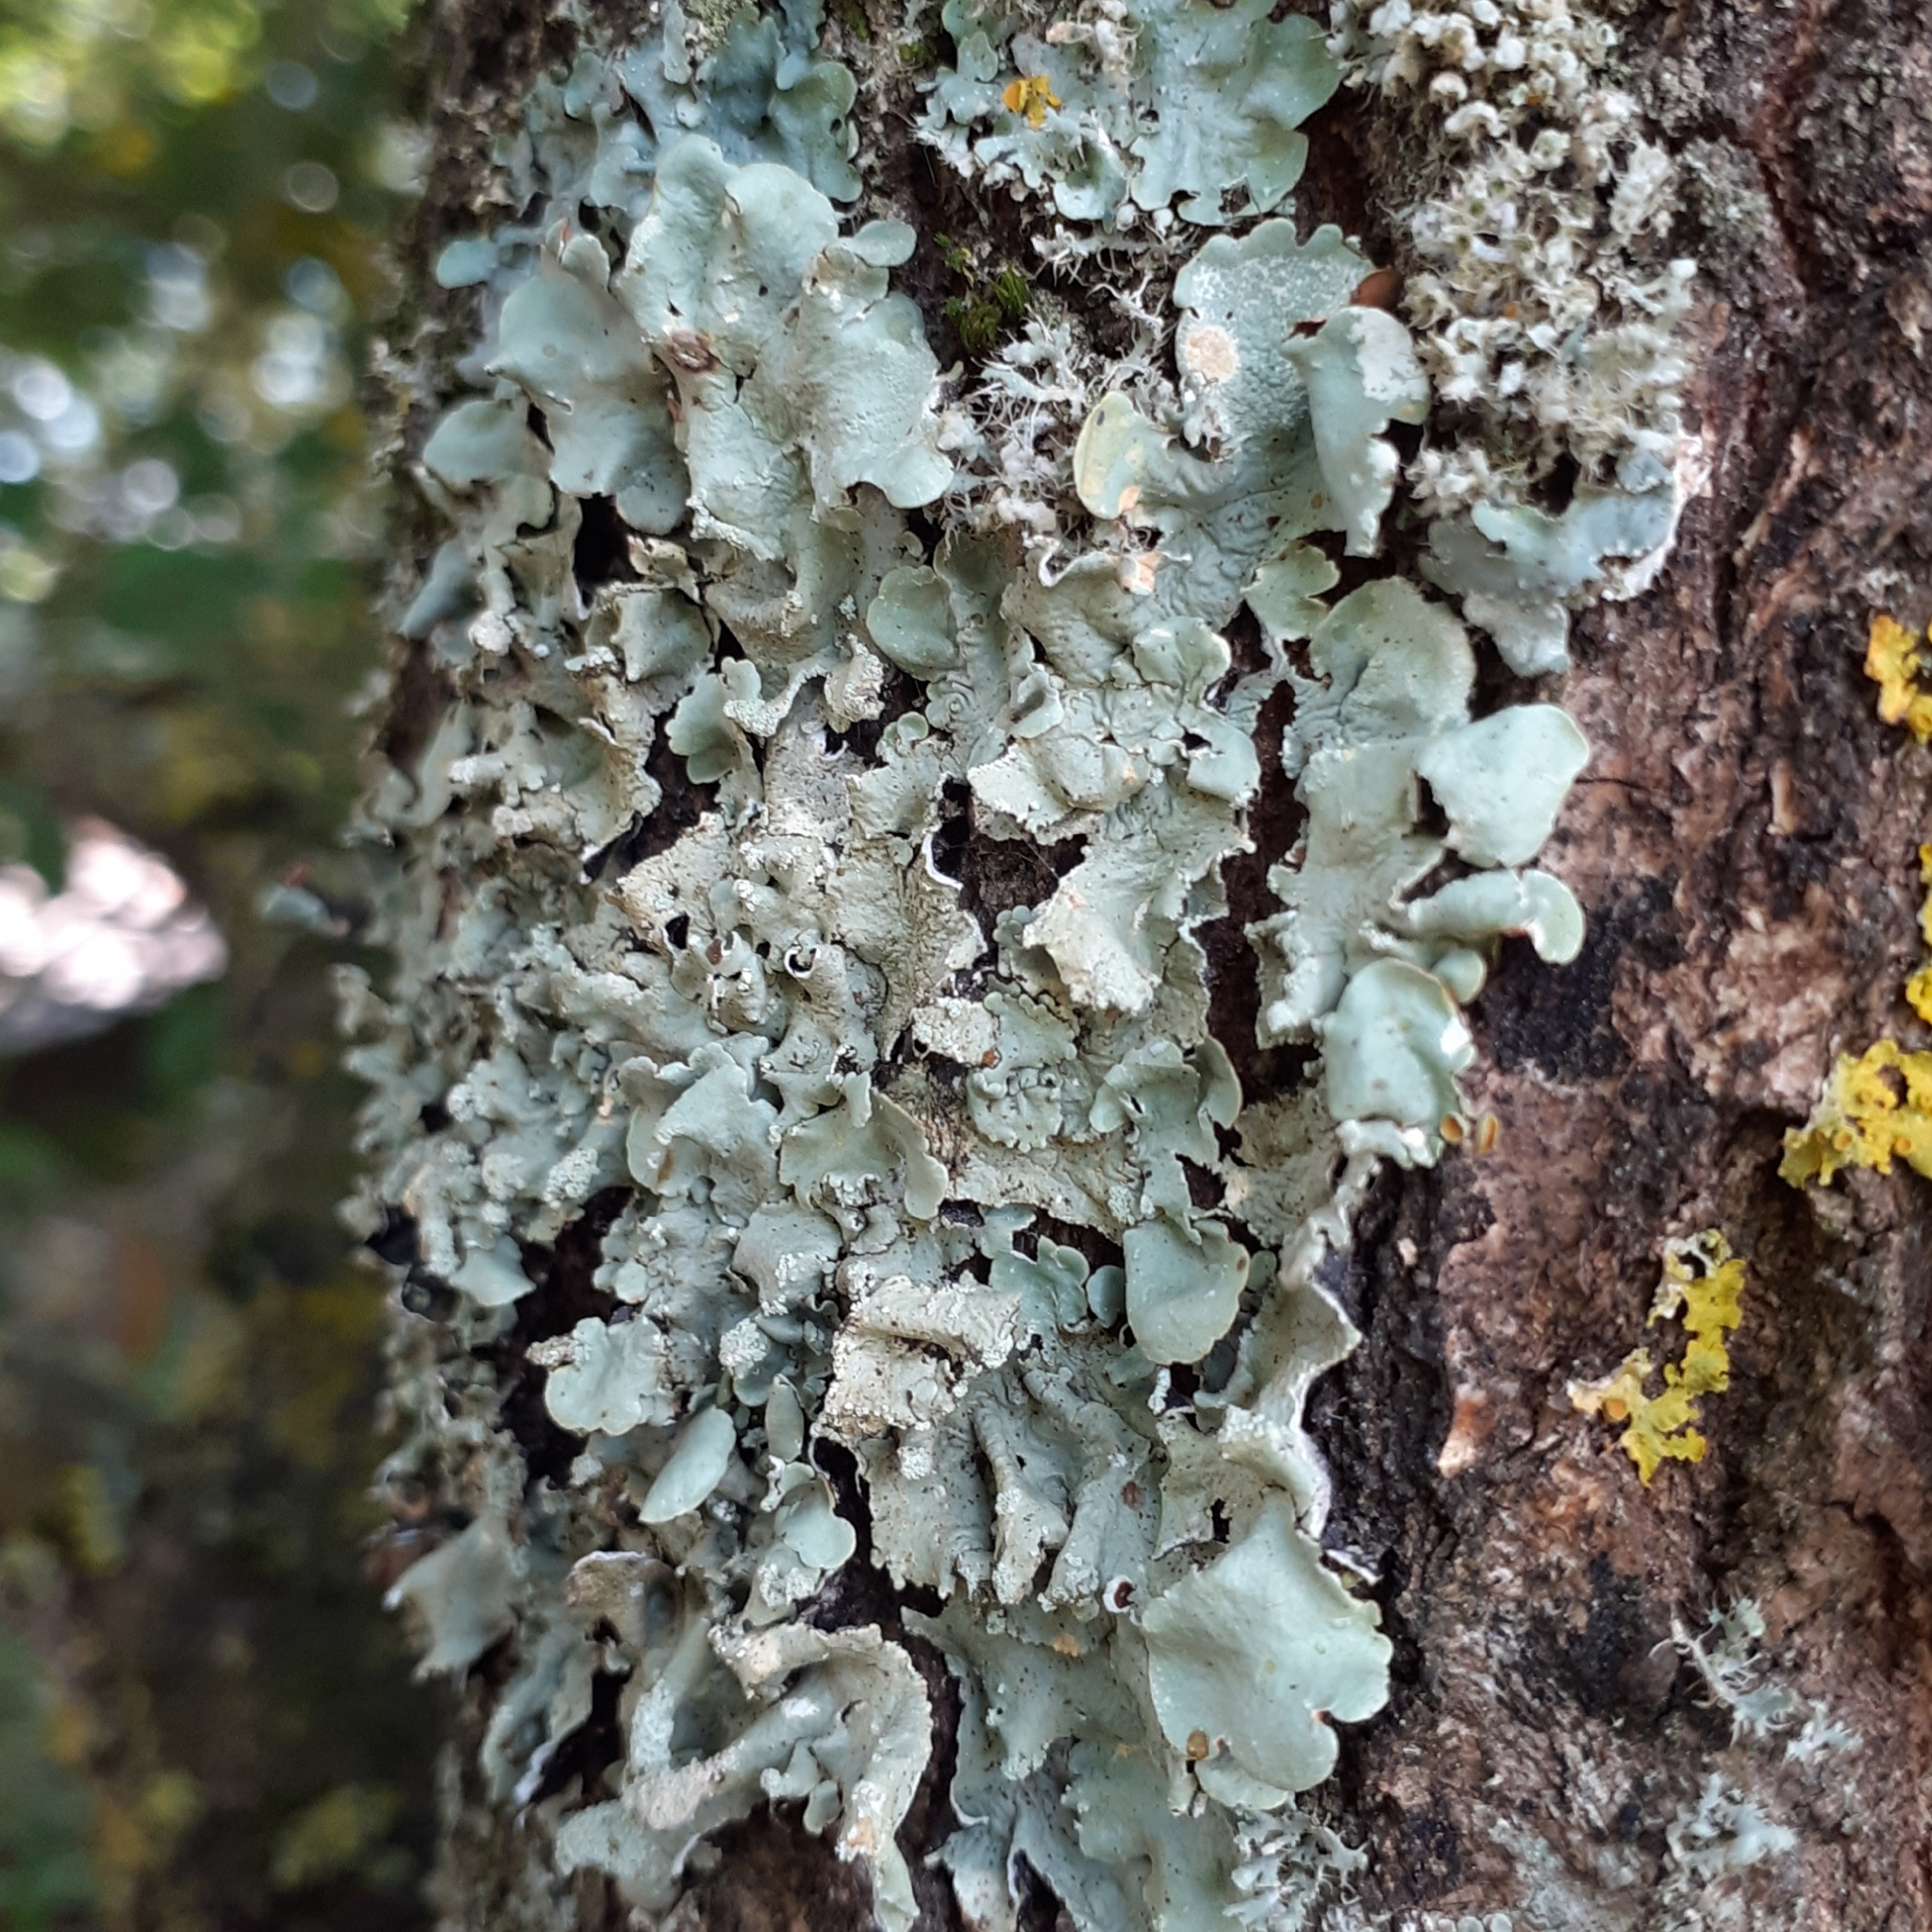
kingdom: Fungi
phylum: Ascomycota
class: Lecanoromycetes
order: Lecanorales
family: Parmeliaceae
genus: Flavoparmelia
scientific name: Flavoparmelia caperata
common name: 40-mile per hour lichen
